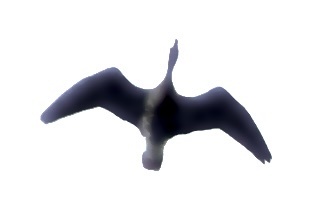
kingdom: Animalia
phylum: Chordata
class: Aves
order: Anseriformes
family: Anatidae
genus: Branta
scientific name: Branta canadensis
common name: Canada goose
